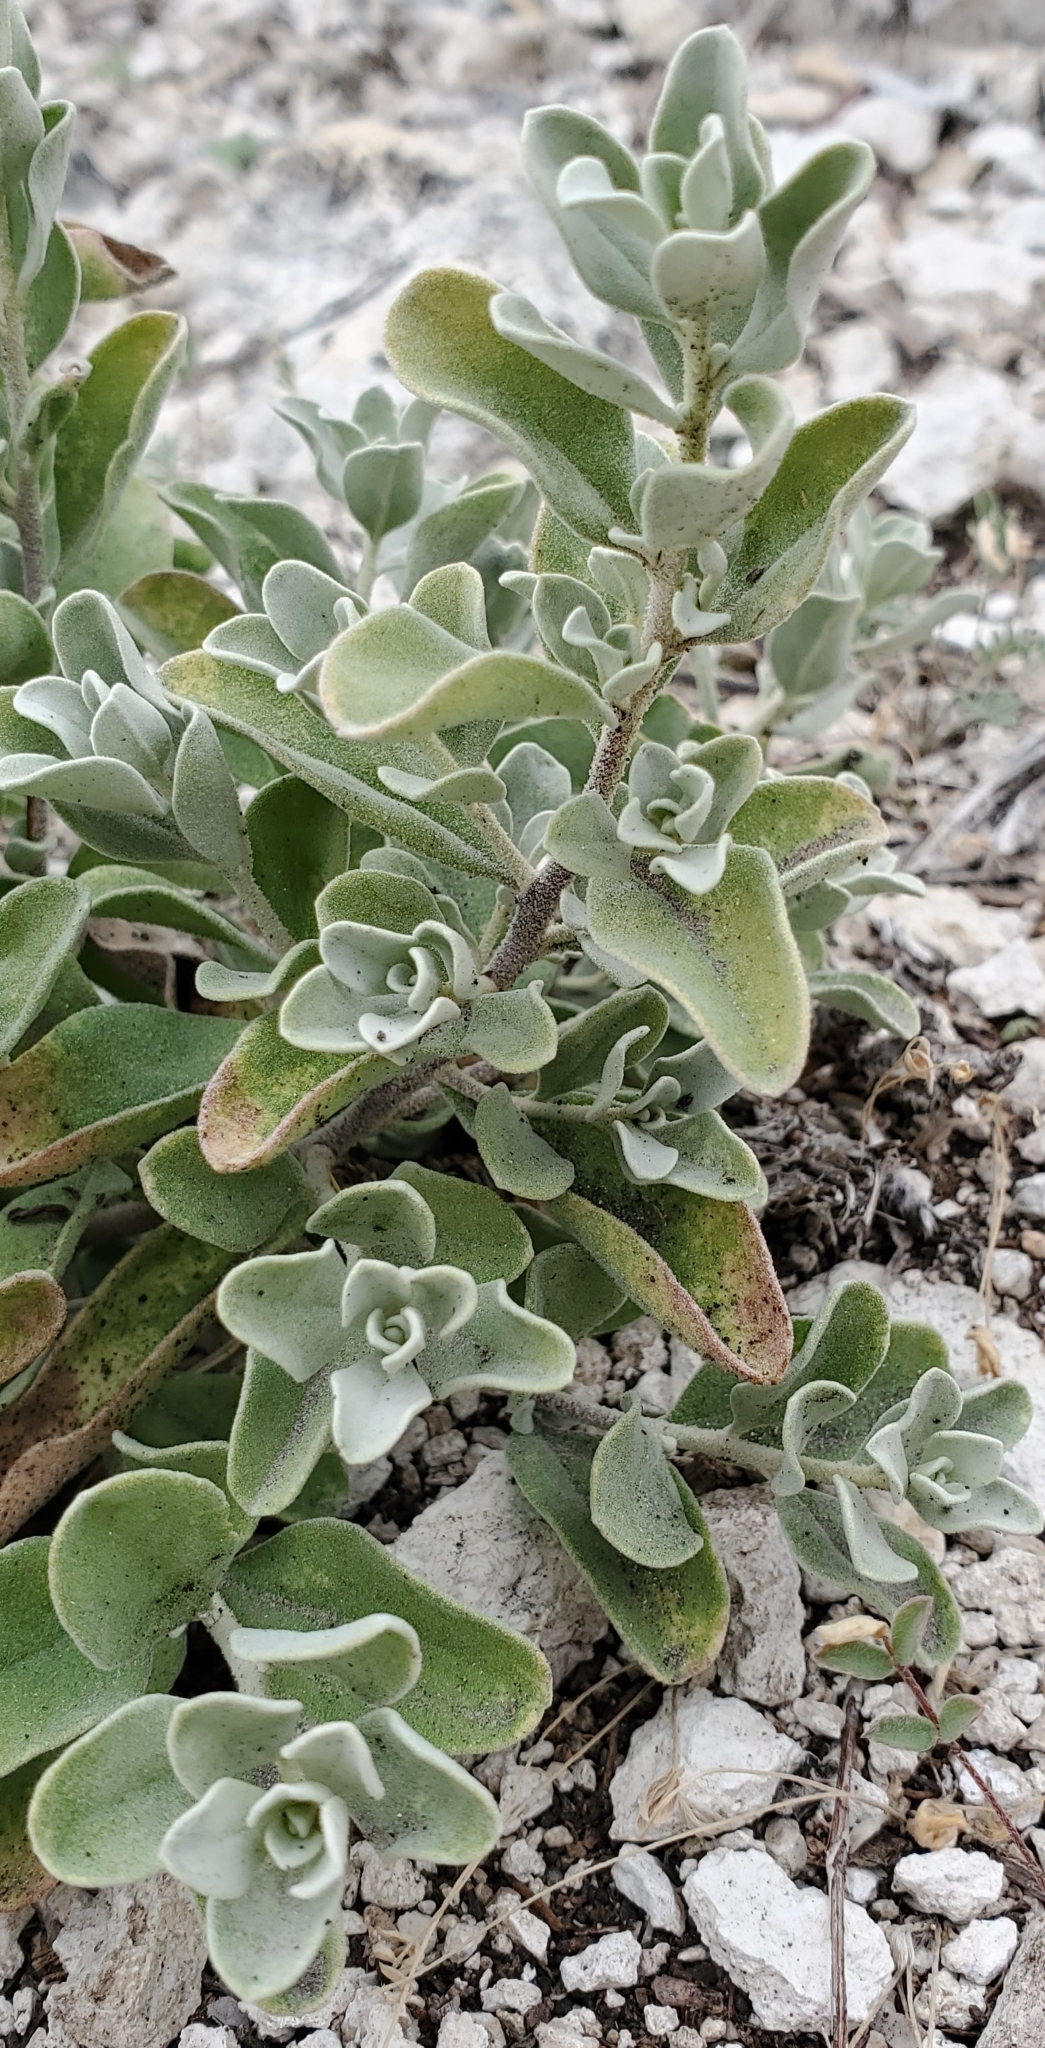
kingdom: Plantae
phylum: Tracheophyta
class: Magnoliopsida
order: Lamiales
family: Scrophulariaceae
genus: Leucophyllum
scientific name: Leucophyllum frutescens
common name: Texas silverleaf
